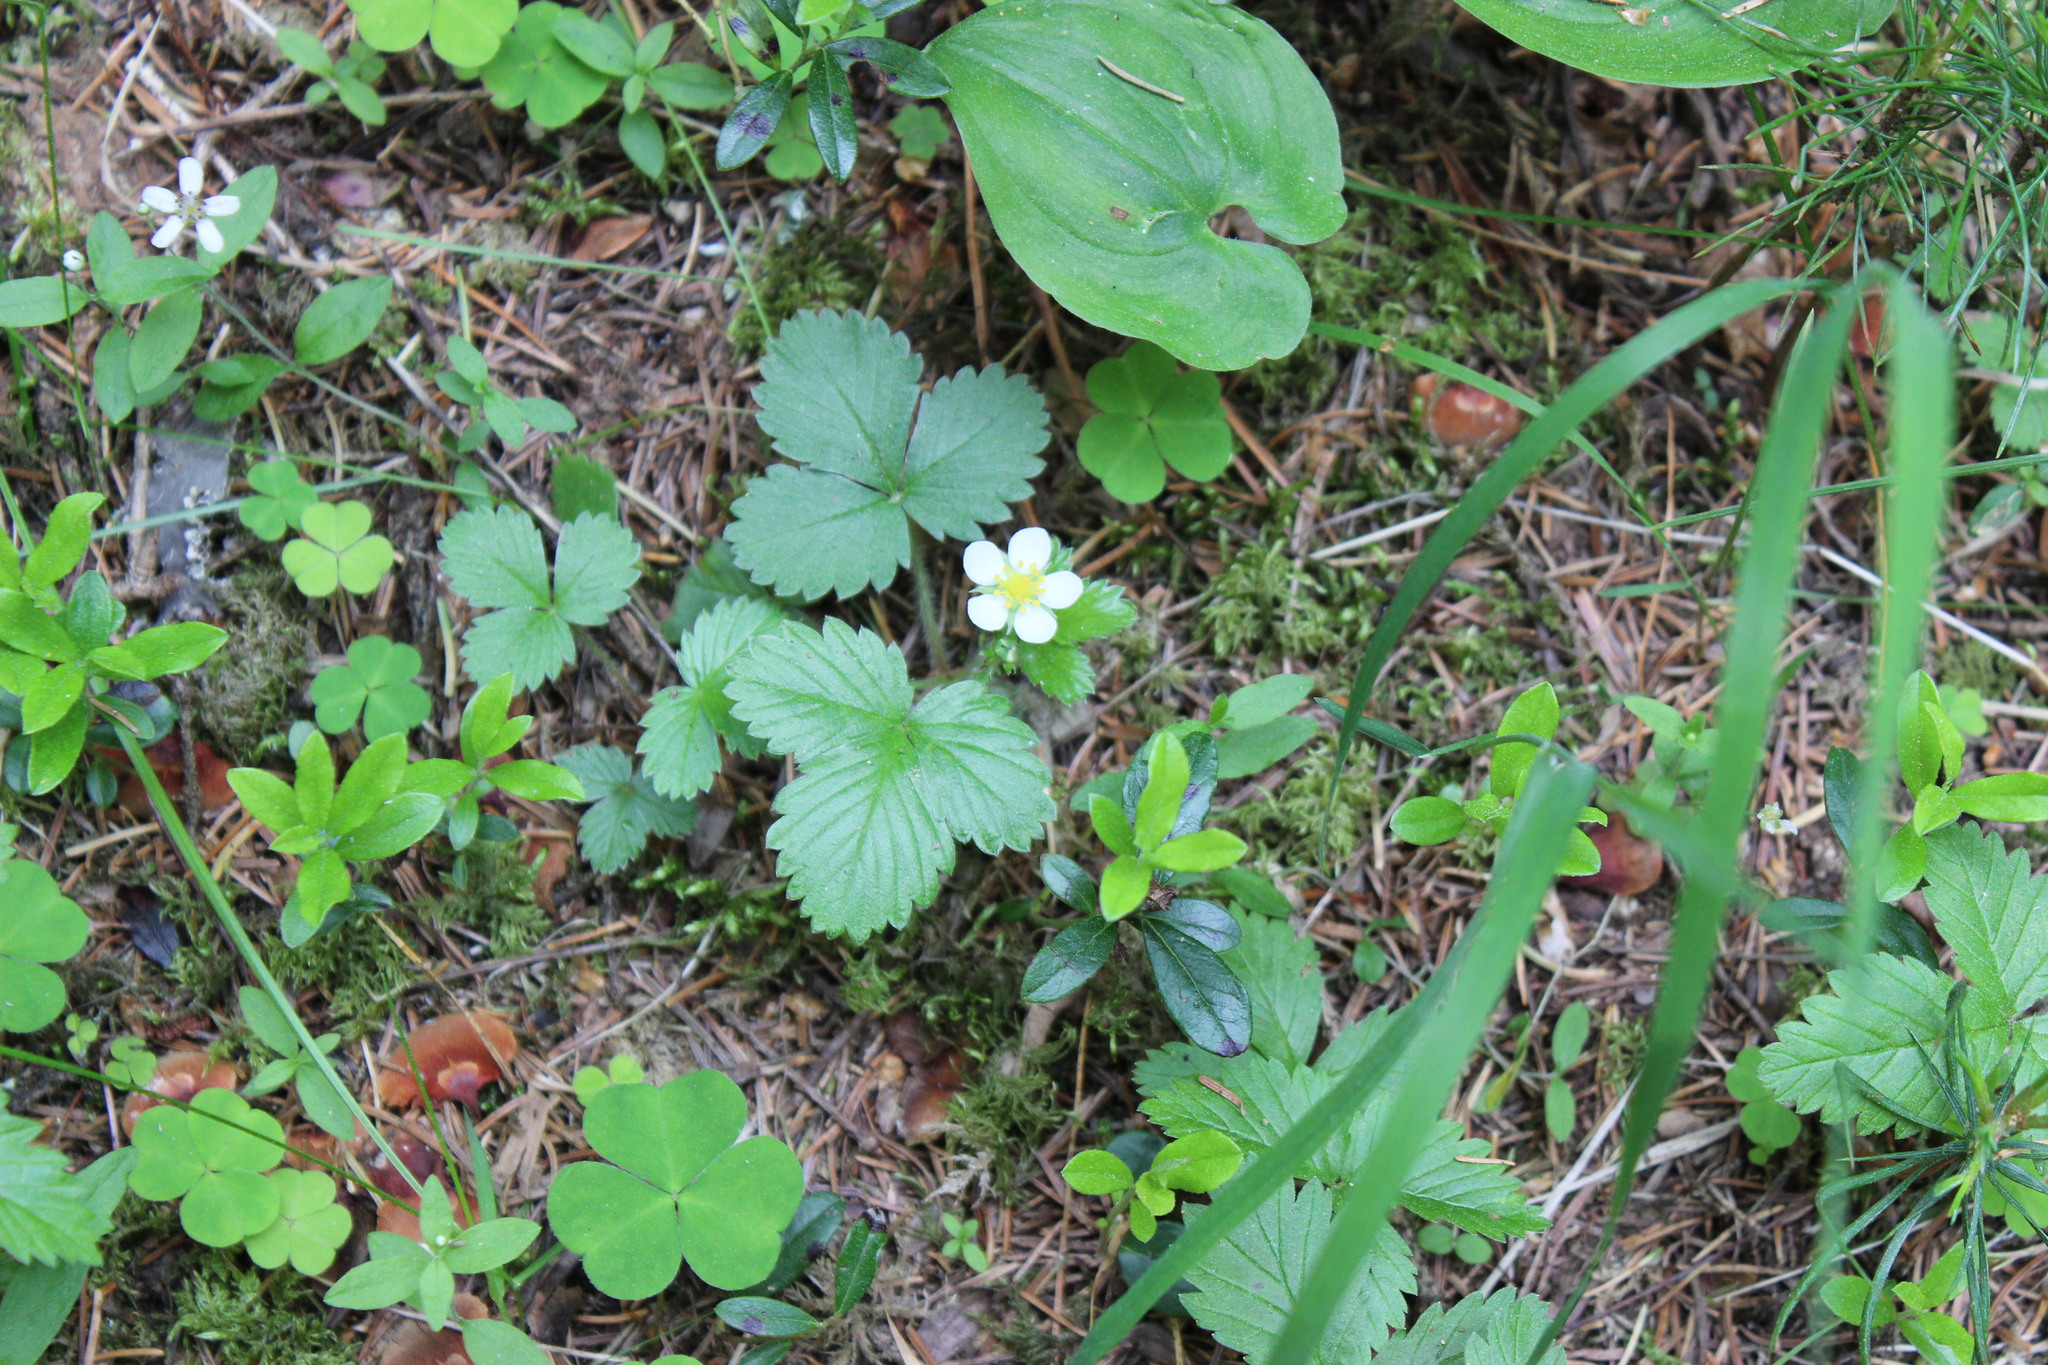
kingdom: Plantae
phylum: Tracheophyta
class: Magnoliopsida
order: Rosales
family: Rosaceae
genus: Fragaria
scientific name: Fragaria vesca
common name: Wild strawberry
